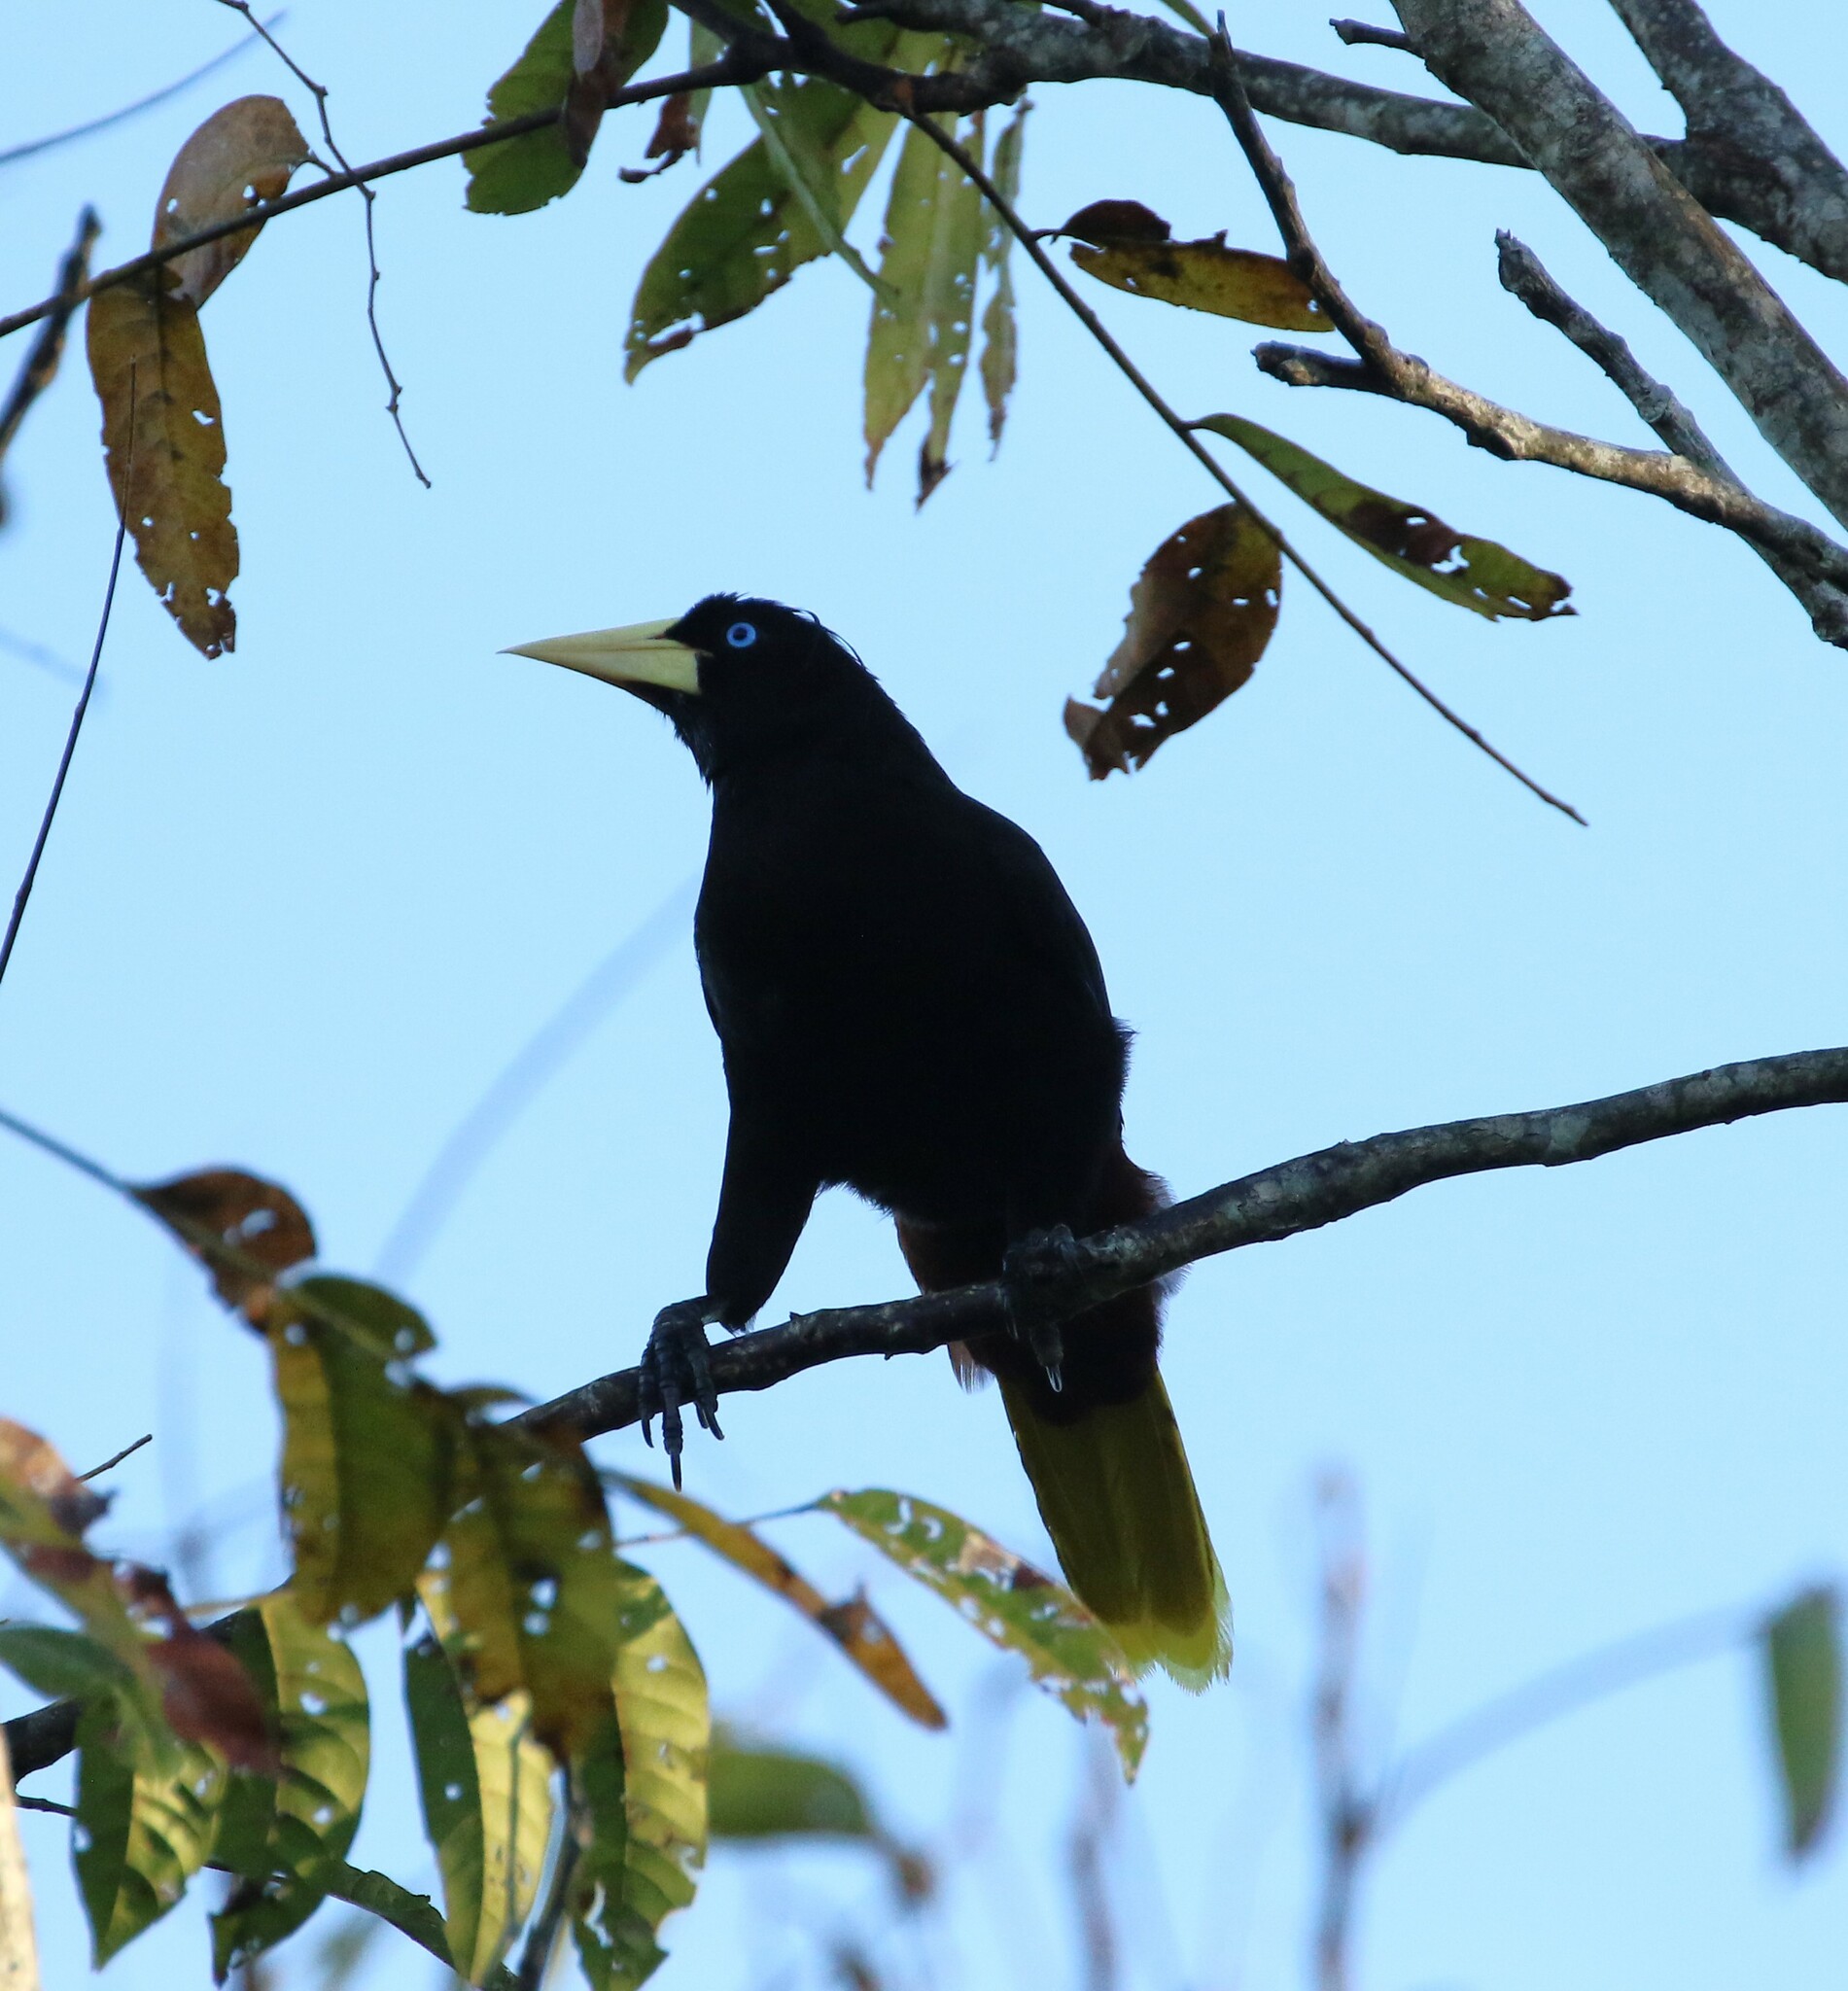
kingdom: Animalia
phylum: Chordata
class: Aves
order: Passeriformes
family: Icteridae
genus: Psarocolius
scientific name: Psarocolius wagleri
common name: Chestnut-headed oropendola
